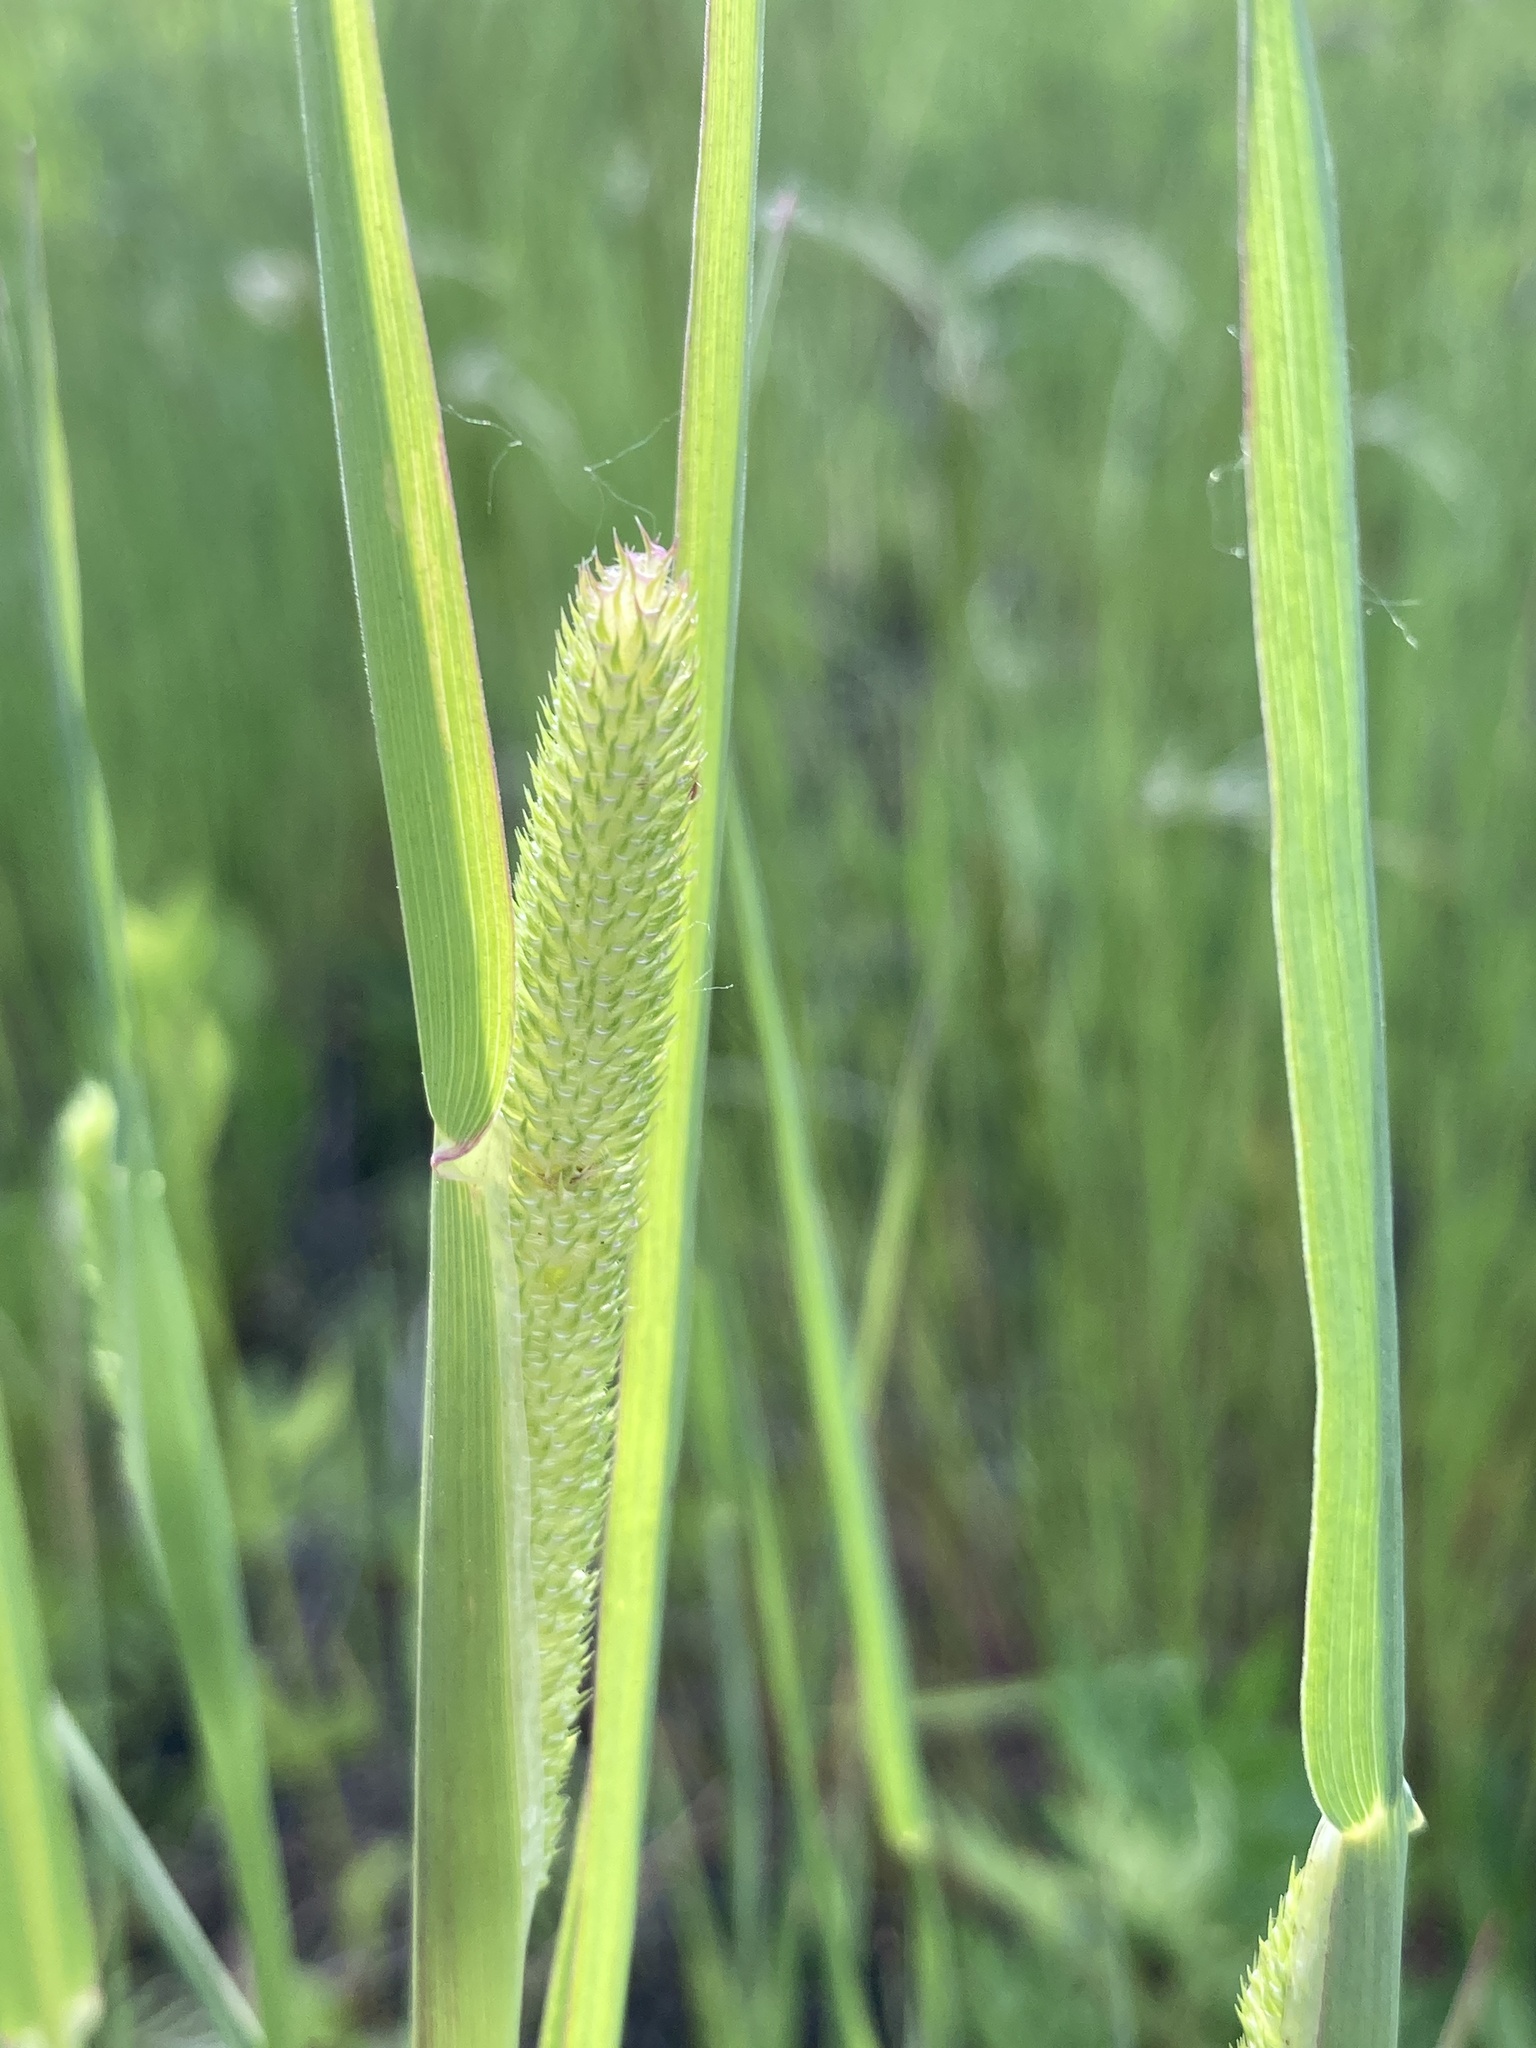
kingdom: Plantae
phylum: Tracheophyta
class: Liliopsida
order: Poales
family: Poaceae
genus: Phleum
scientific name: Phleum pratense
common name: Timothy grass
